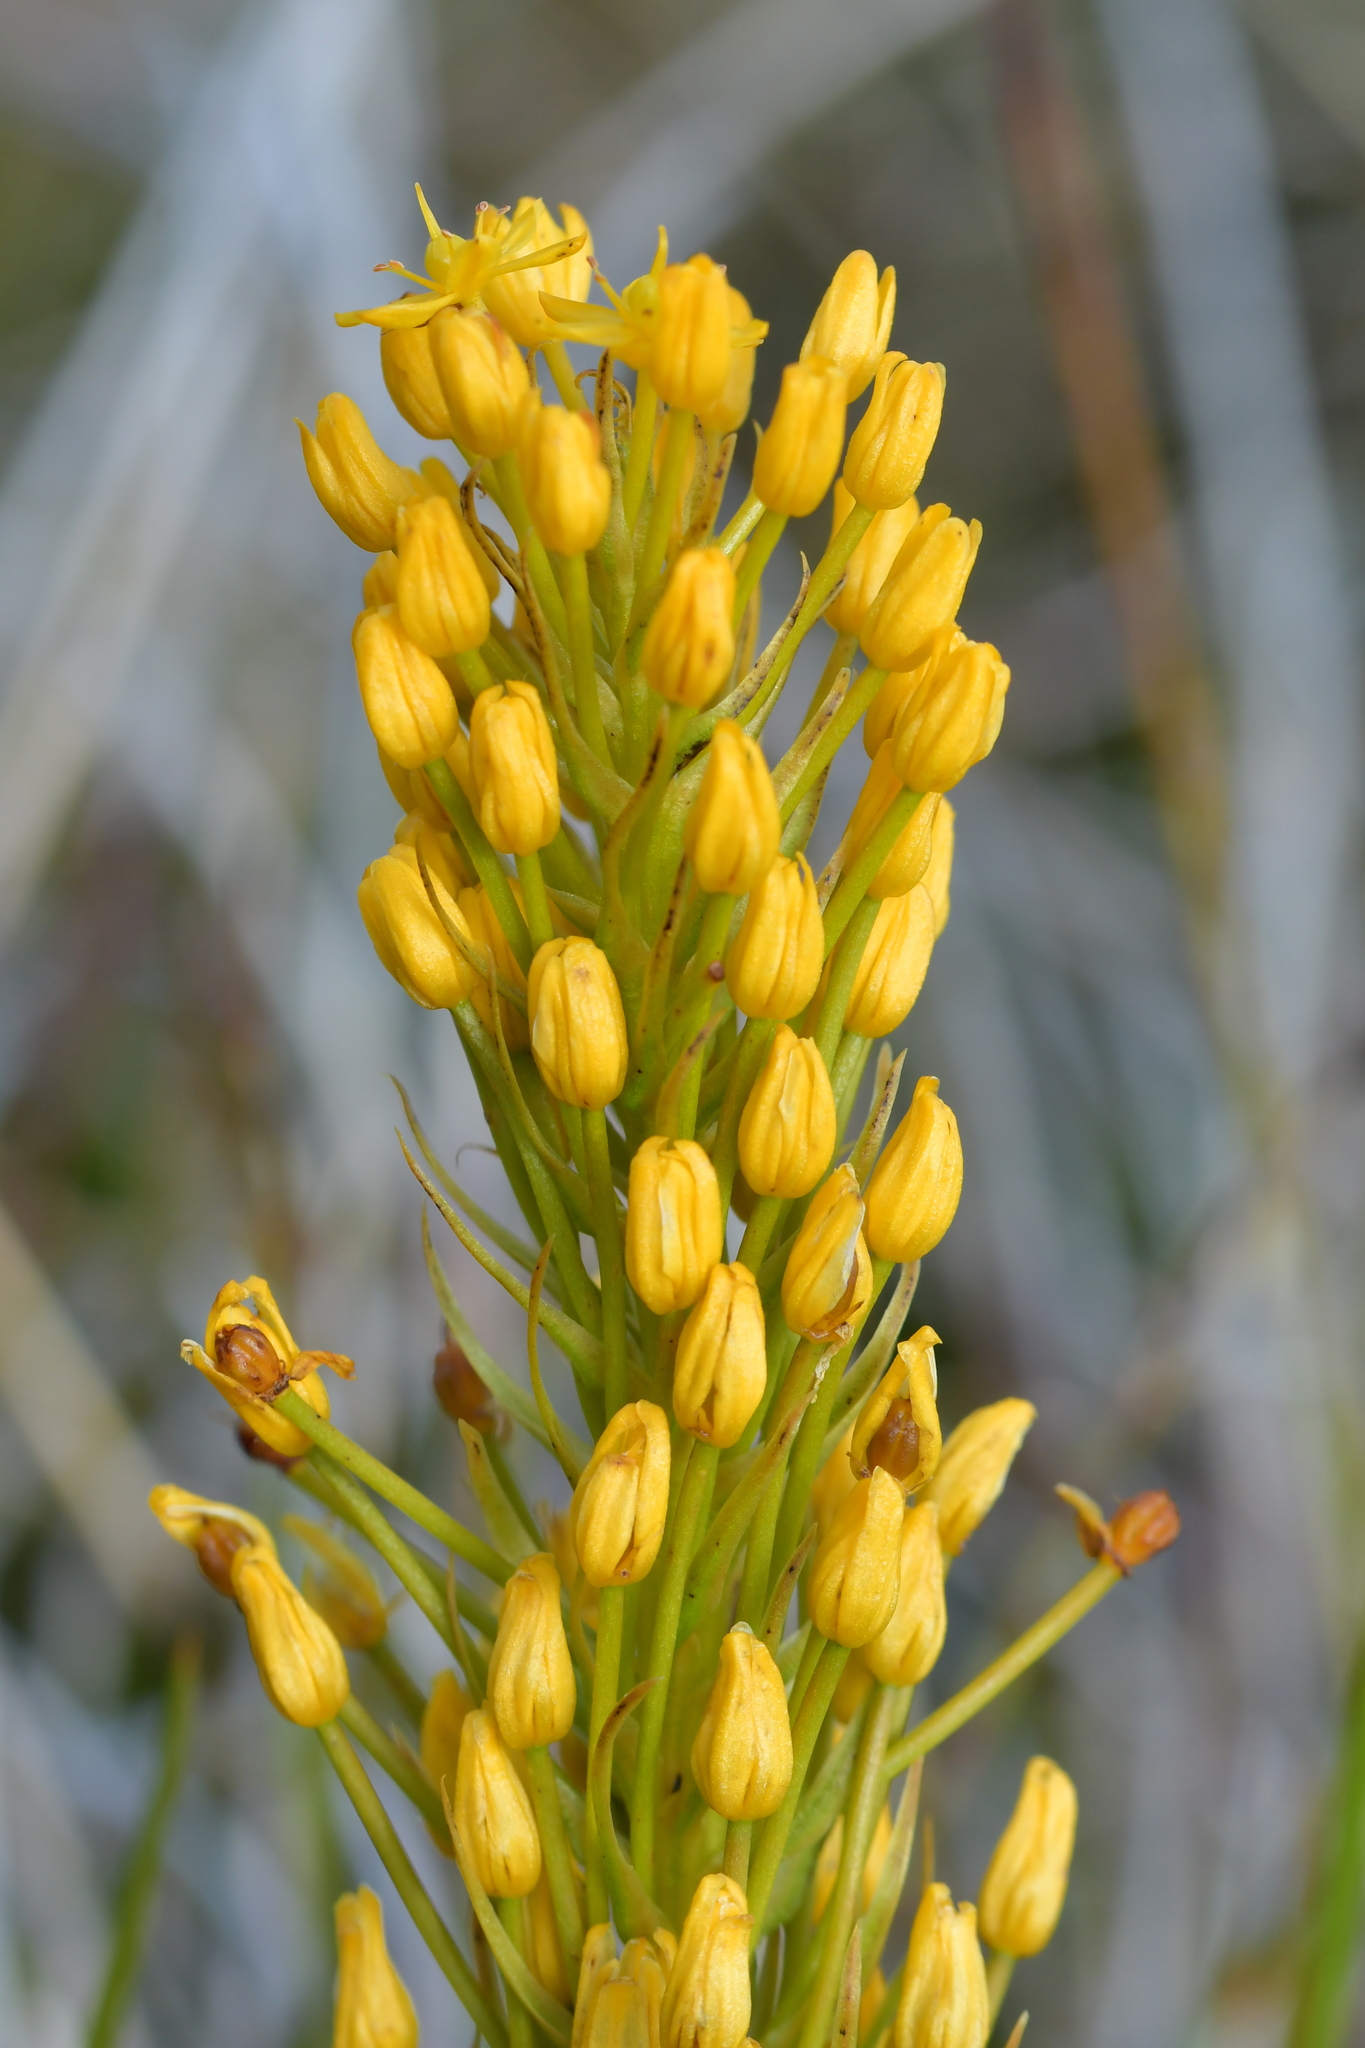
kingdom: Plantae
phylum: Tracheophyta
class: Liliopsida
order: Asparagales
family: Asphodelaceae
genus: Bulbinella
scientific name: Bulbinella hookeri
